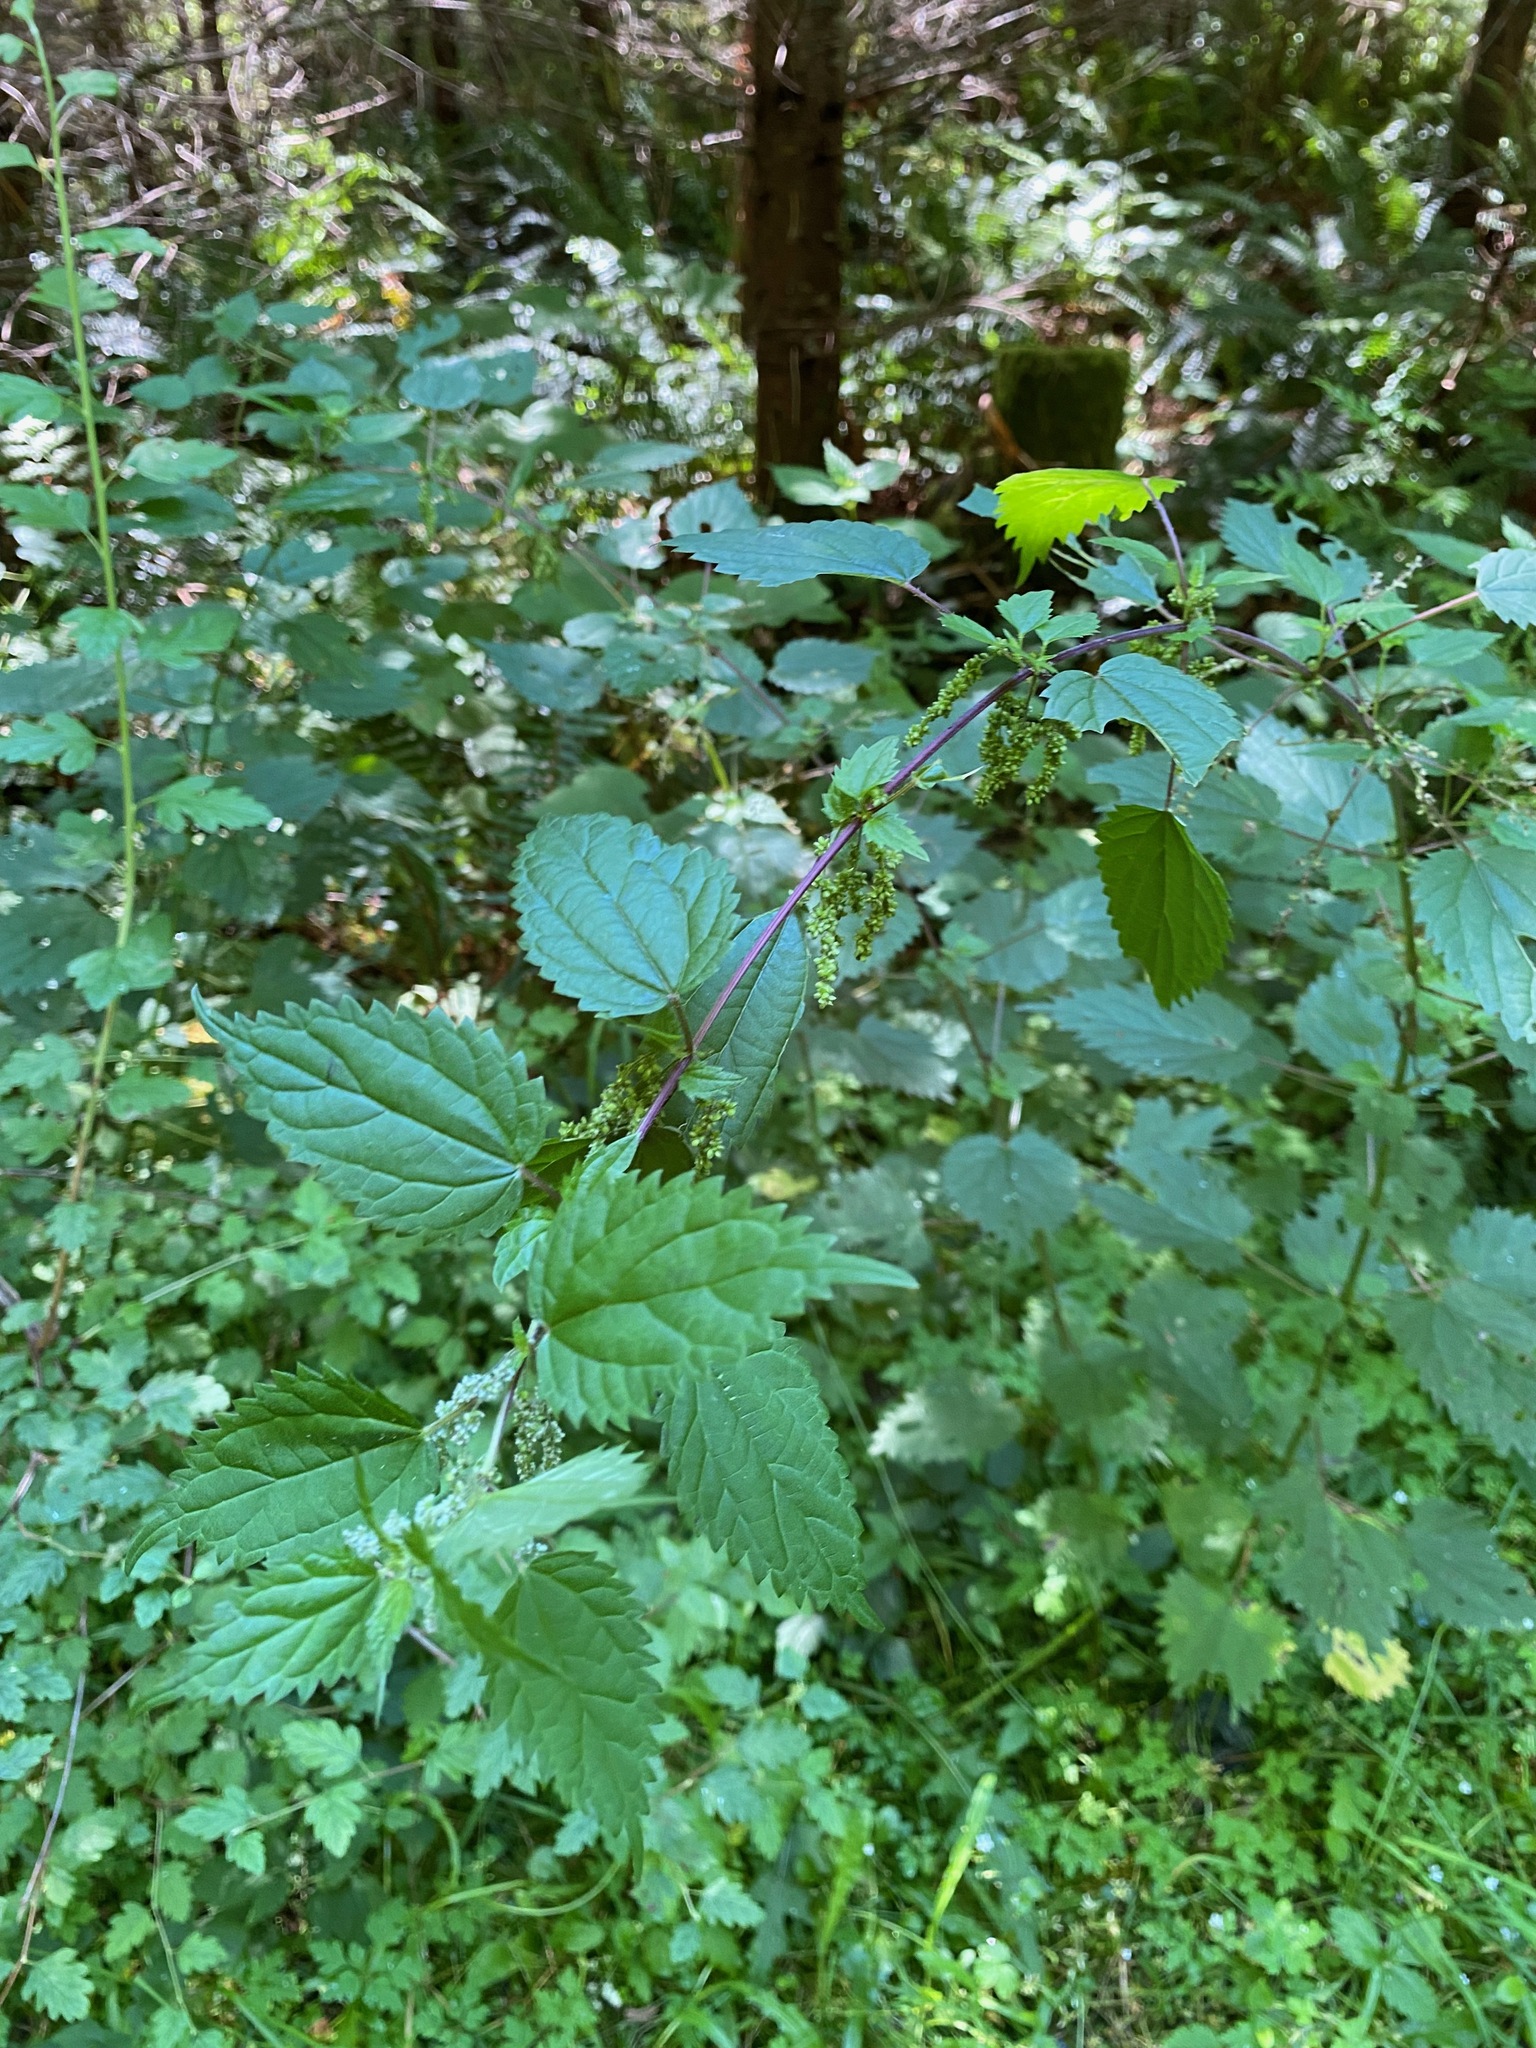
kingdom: Plantae
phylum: Tracheophyta
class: Magnoliopsida
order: Rosales
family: Urticaceae
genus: Urtica
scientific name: Urtica dioica
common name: Common nettle
